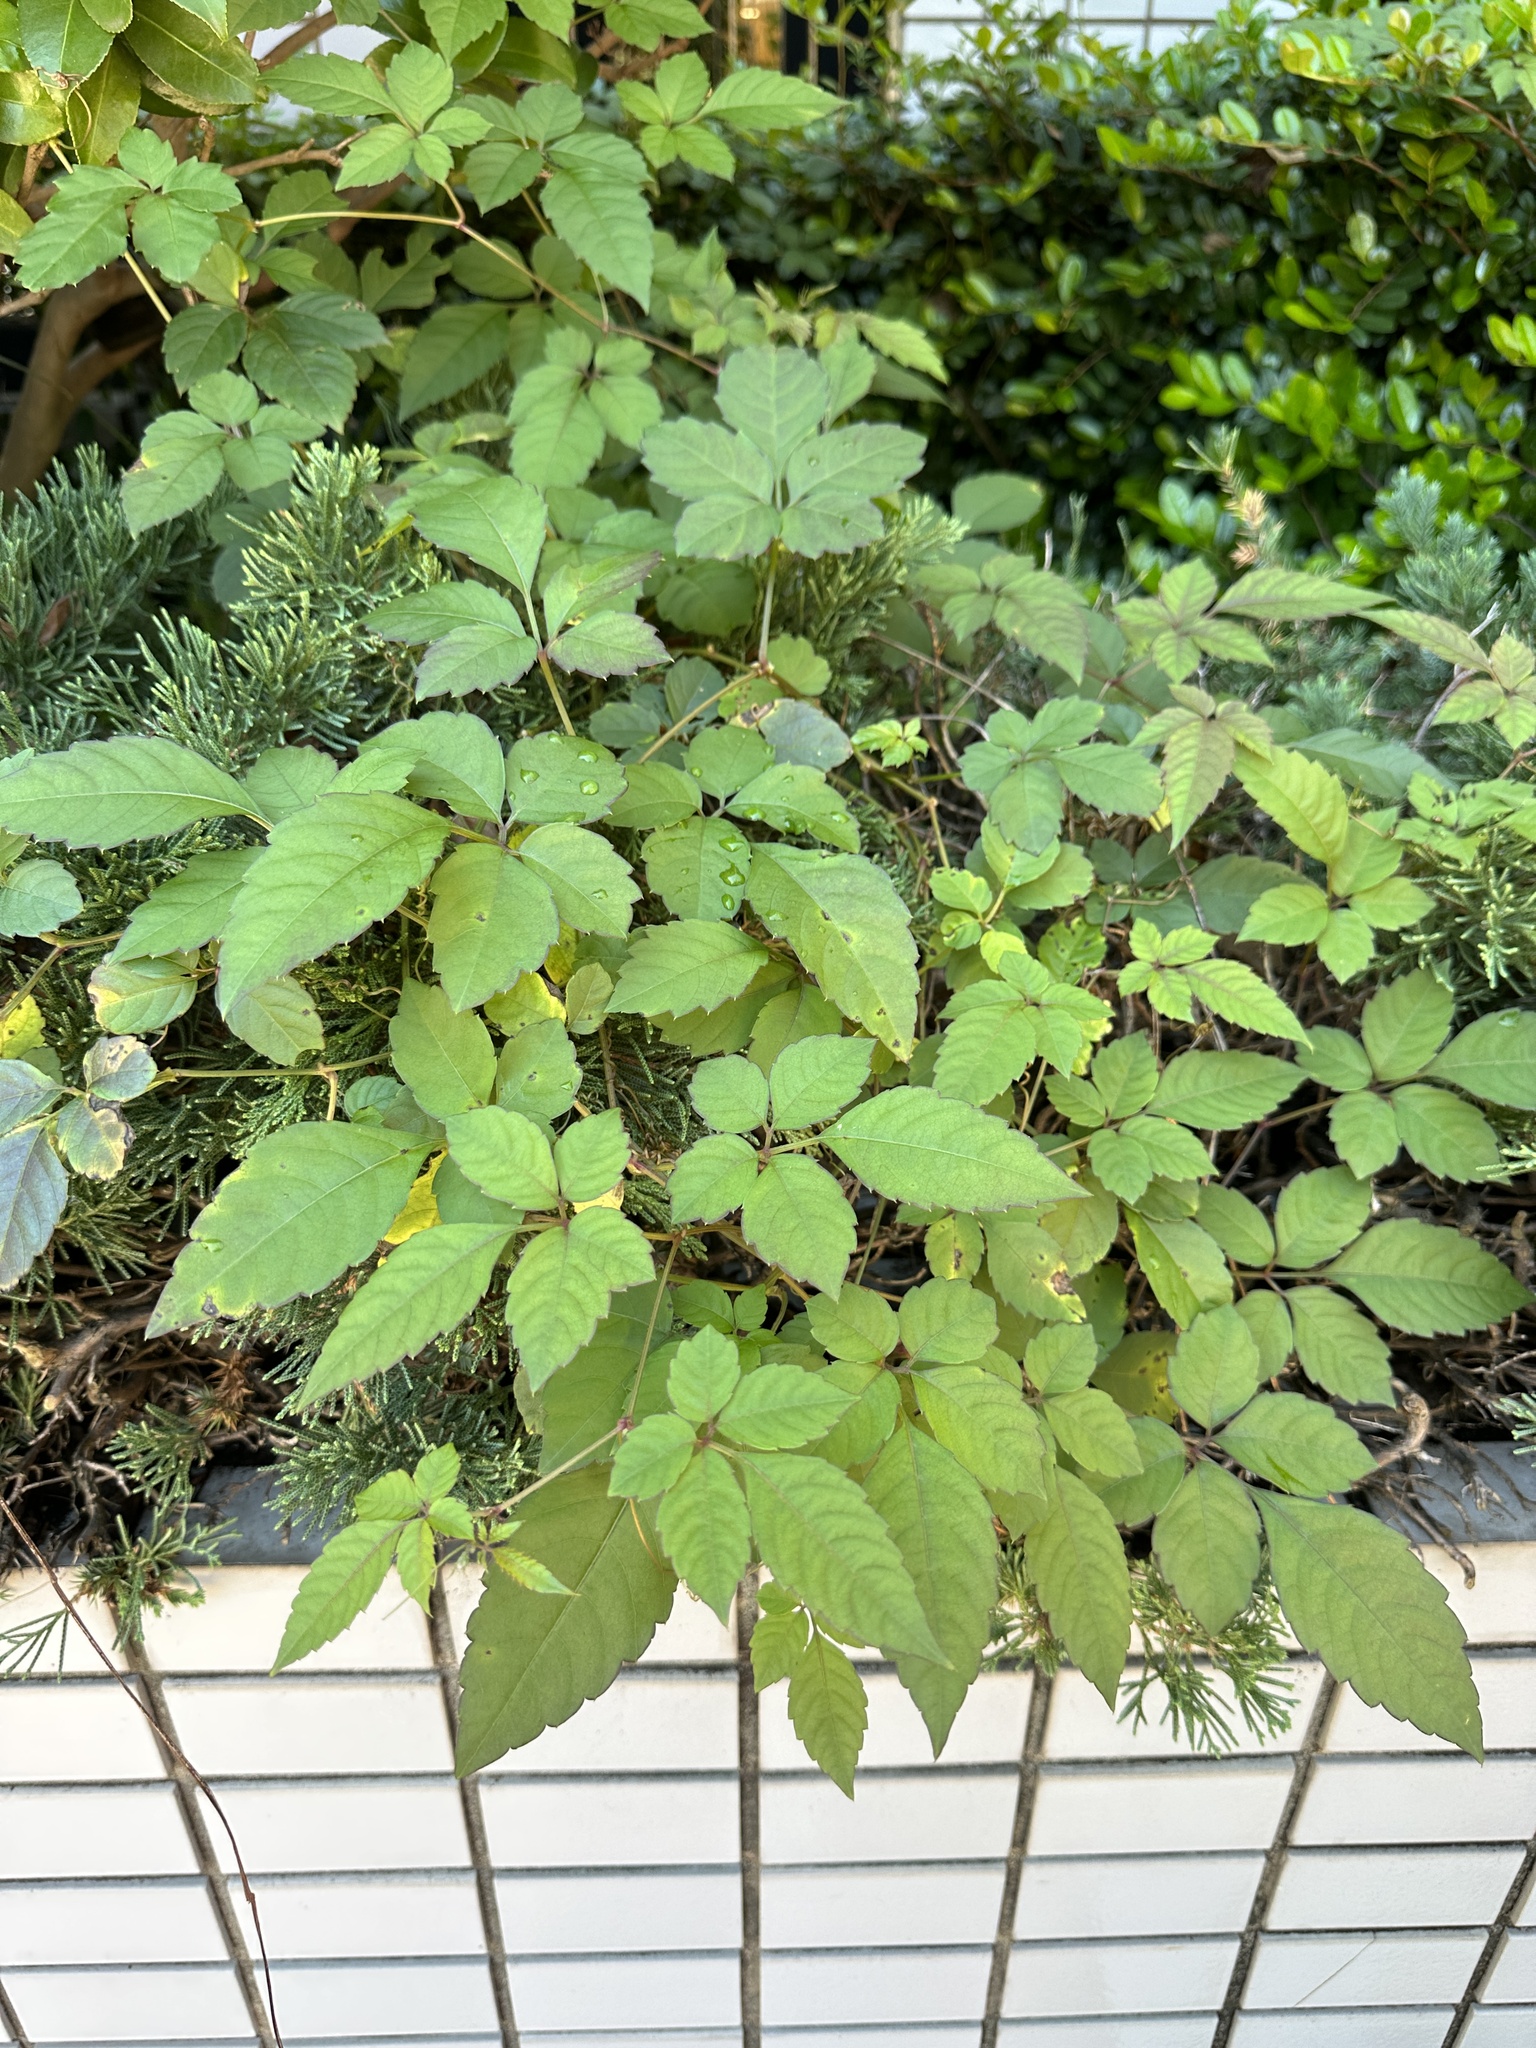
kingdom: Plantae
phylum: Tracheophyta
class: Magnoliopsida
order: Vitales
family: Vitaceae
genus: Causonis
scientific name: Causonis japonica
